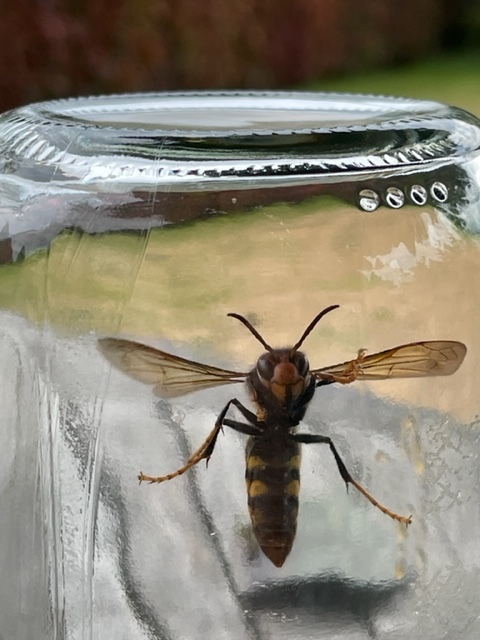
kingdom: Animalia
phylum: Arthropoda
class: Insecta
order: Hymenoptera
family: Vespidae
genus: Vespa
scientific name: Vespa velutina
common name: Asian hornet
